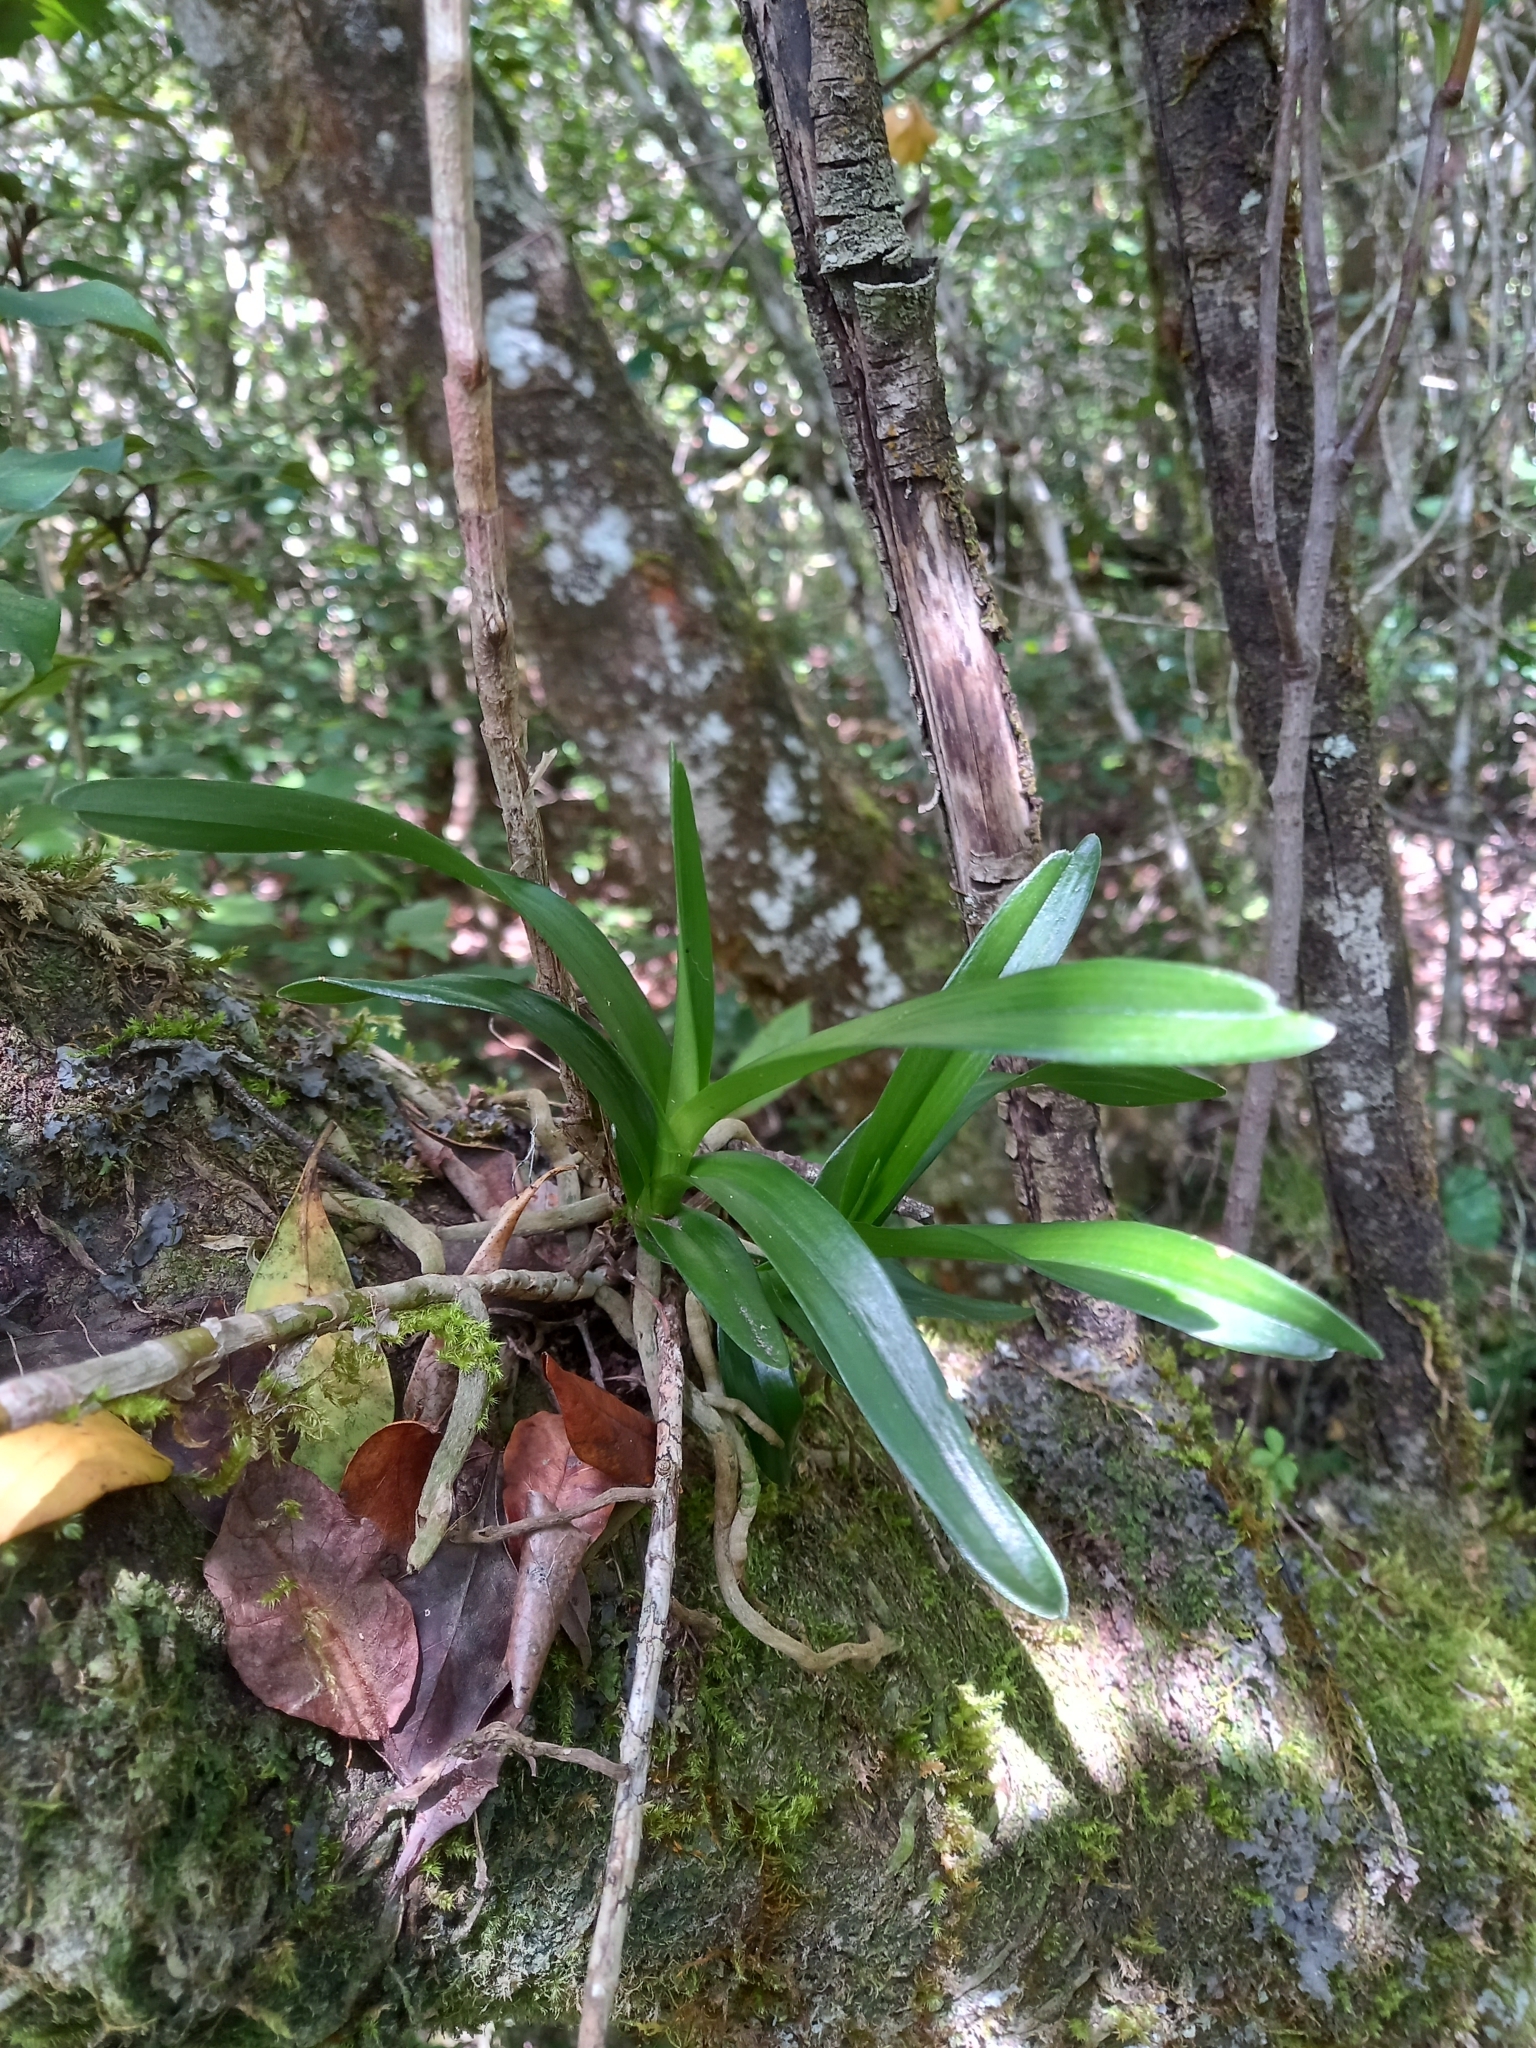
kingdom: Plantae
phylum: Tracheophyta
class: Liliopsida
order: Asparagales
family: Orchidaceae
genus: Tridactyle
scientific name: Tridactyle bicaudata
